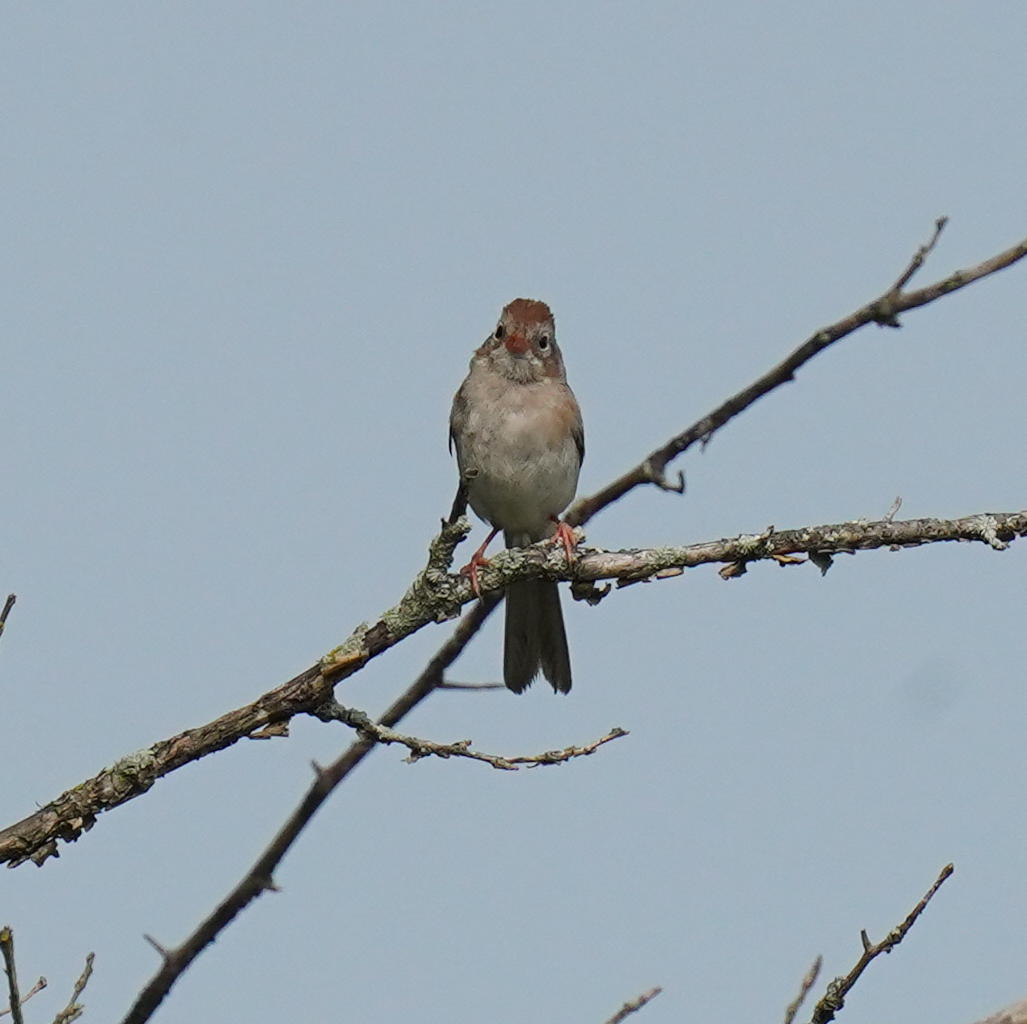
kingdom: Animalia
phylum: Chordata
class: Aves
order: Passeriformes
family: Passerellidae
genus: Spizella
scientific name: Spizella pusilla
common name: Field sparrow
